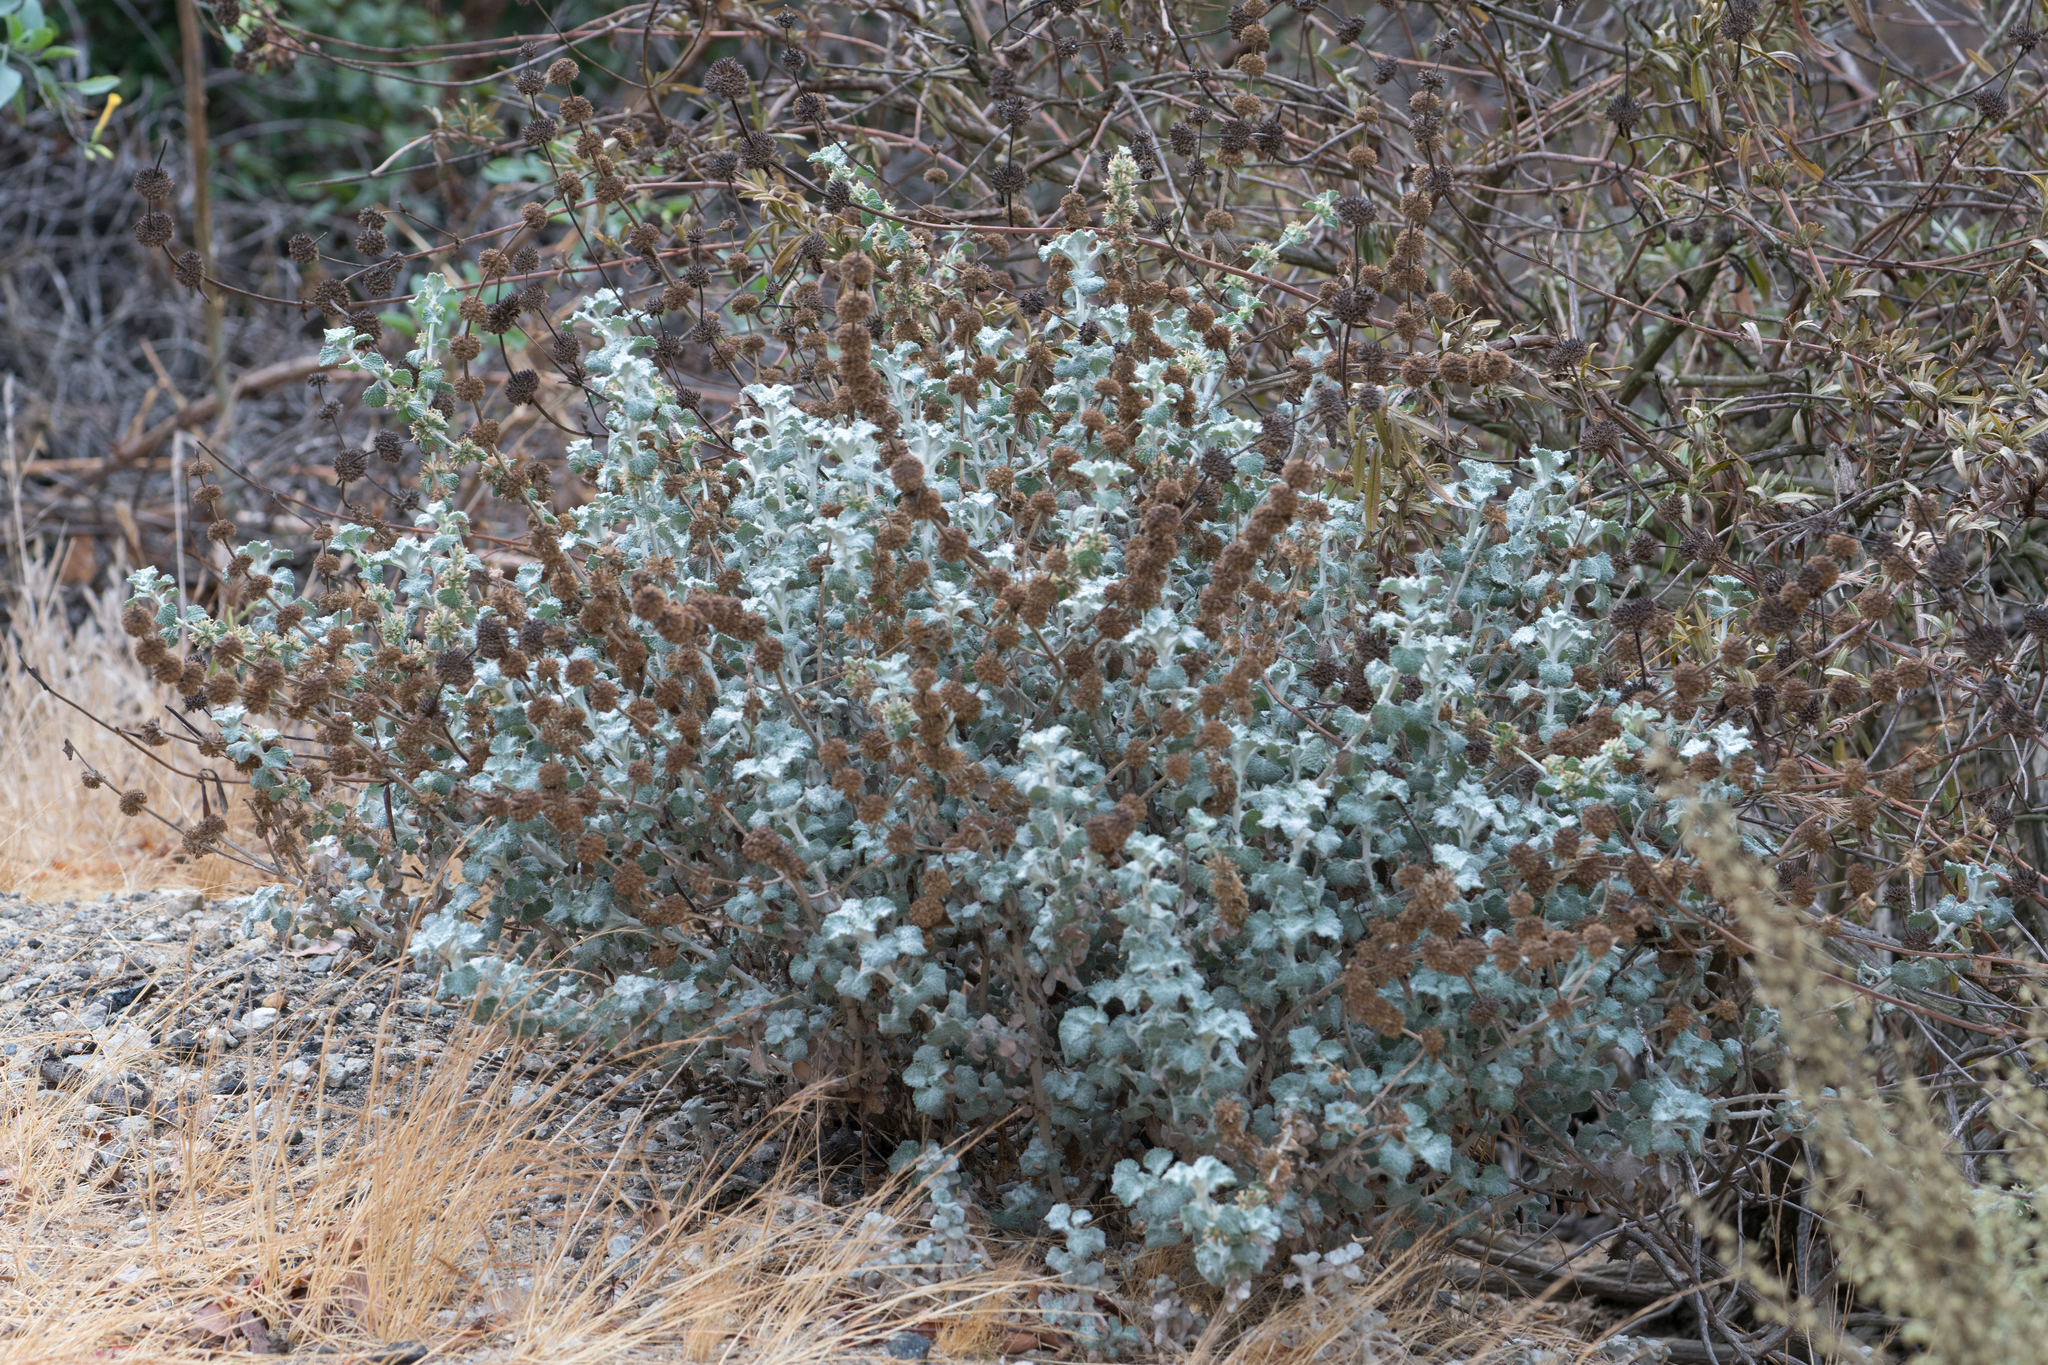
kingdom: Plantae
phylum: Tracheophyta
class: Magnoliopsida
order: Lamiales
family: Lamiaceae
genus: Marrubium
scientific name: Marrubium vulgare
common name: Horehound
